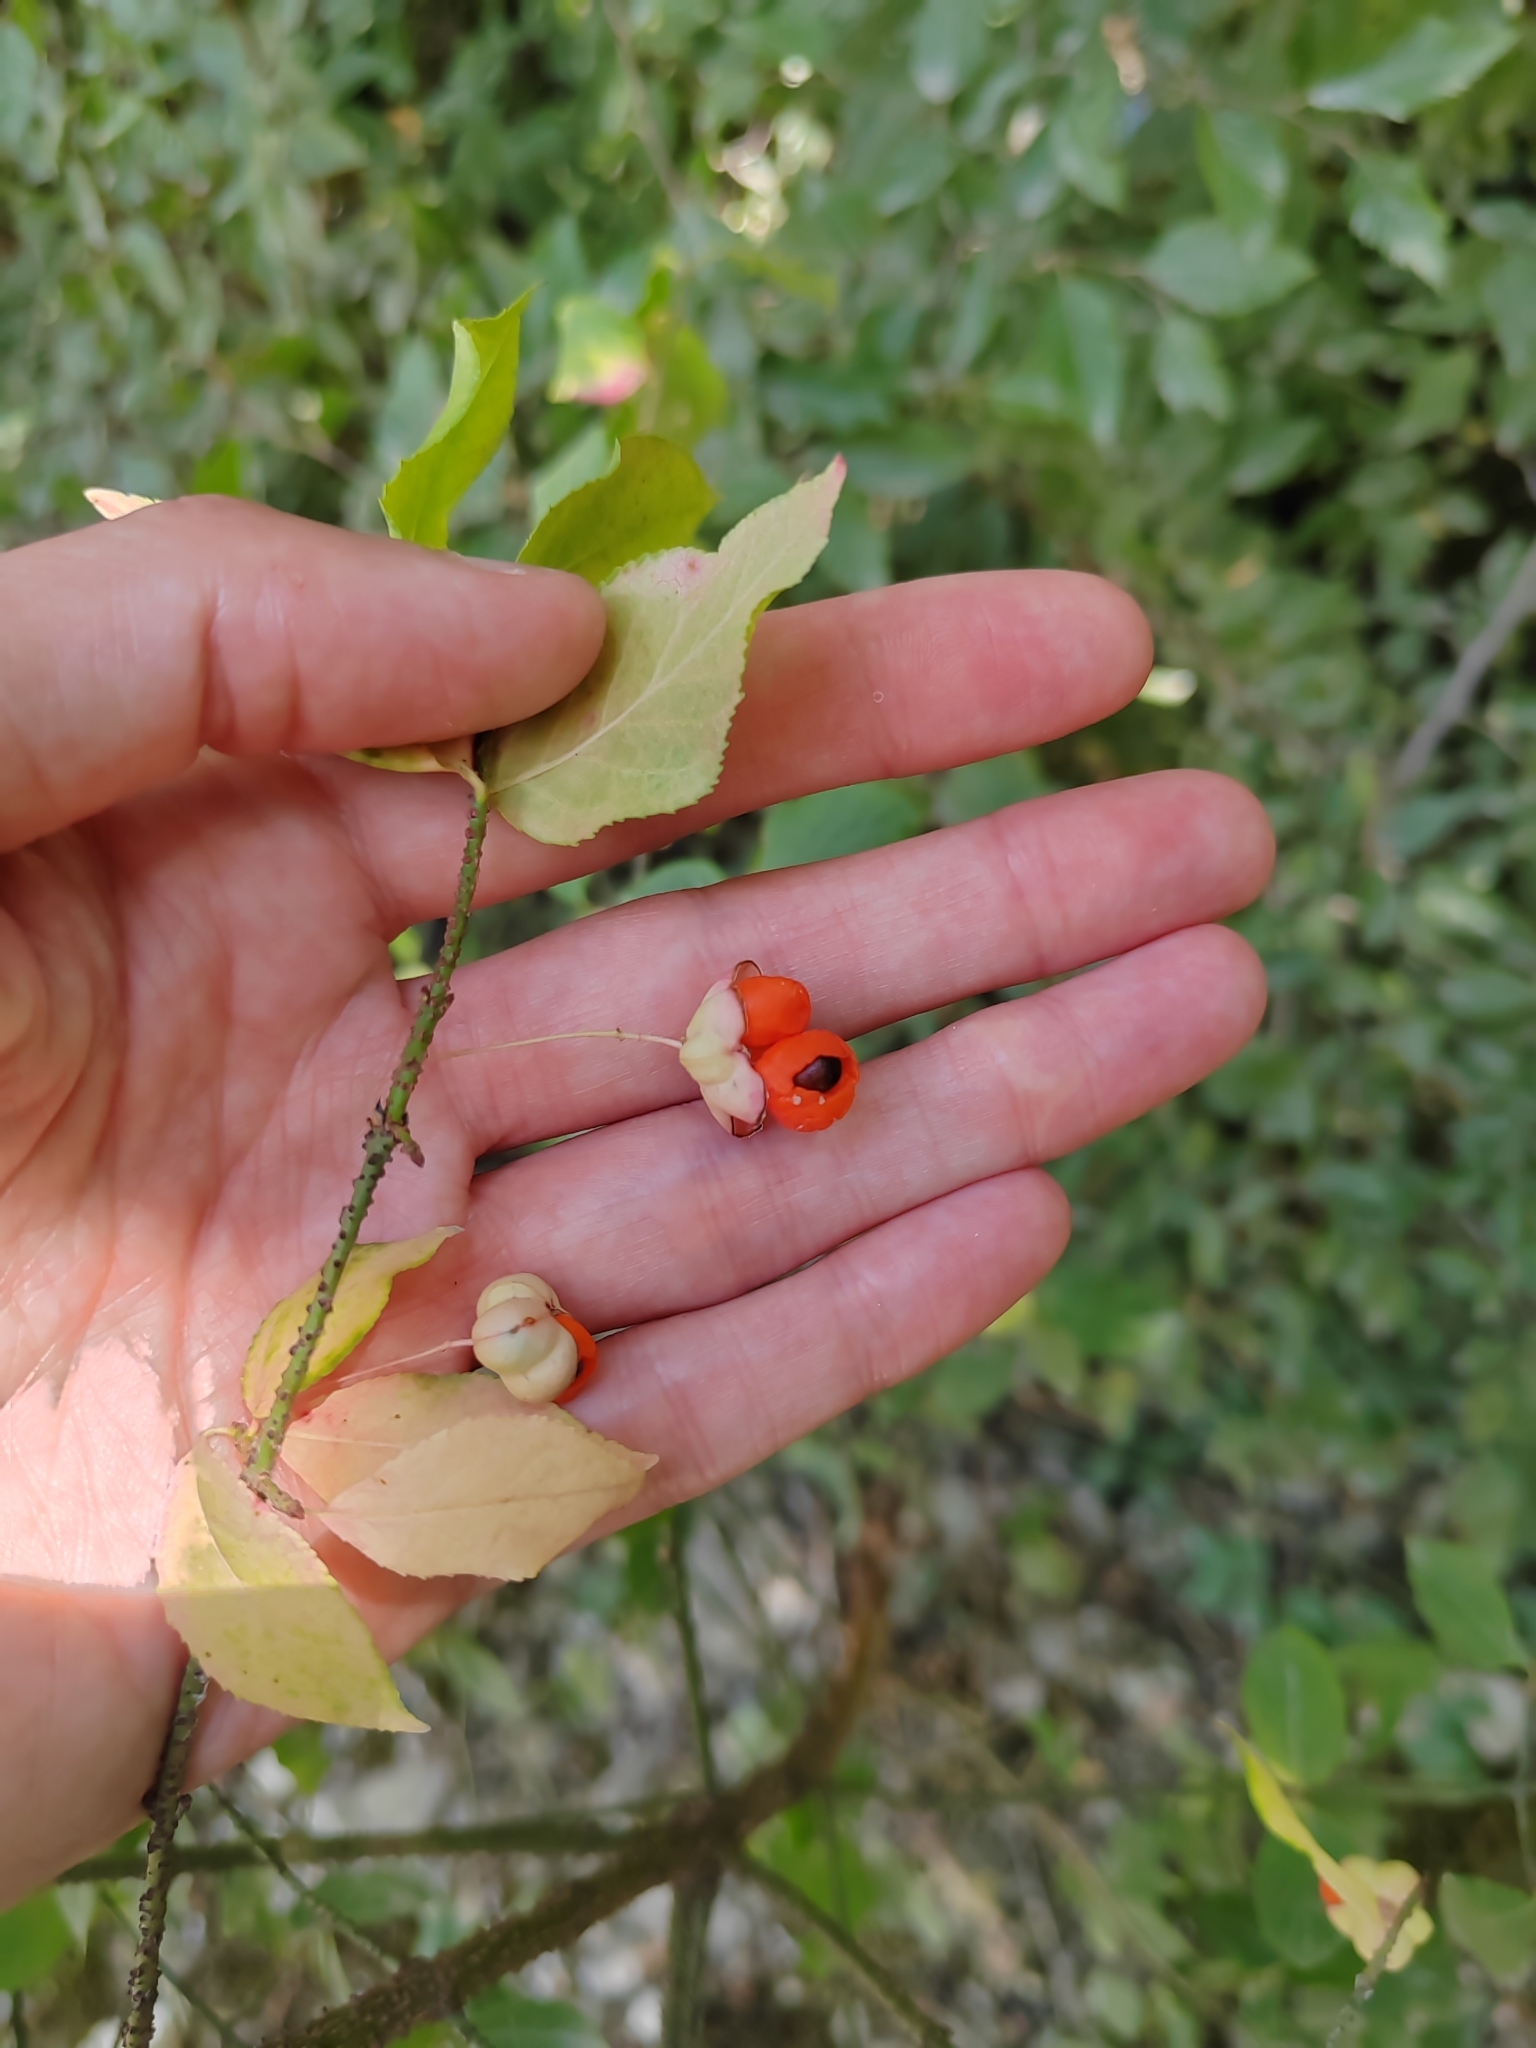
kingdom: Plantae
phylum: Tracheophyta
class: Magnoliopsida
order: Celastrales
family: Celastraceae
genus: Euonymus
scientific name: Euonymus verrucosus
